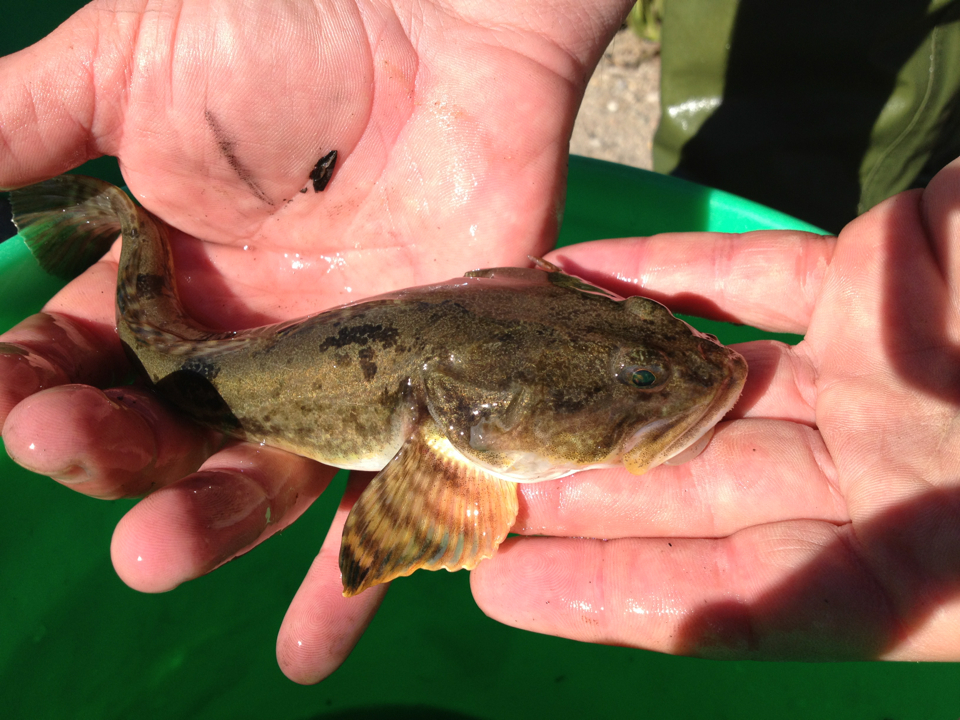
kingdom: Animalia
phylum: Chordata
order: Scorpaeniformes
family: Cottidae
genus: Leptocottus
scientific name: Leptocottus armatus
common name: Pacific staghorn sculpin
